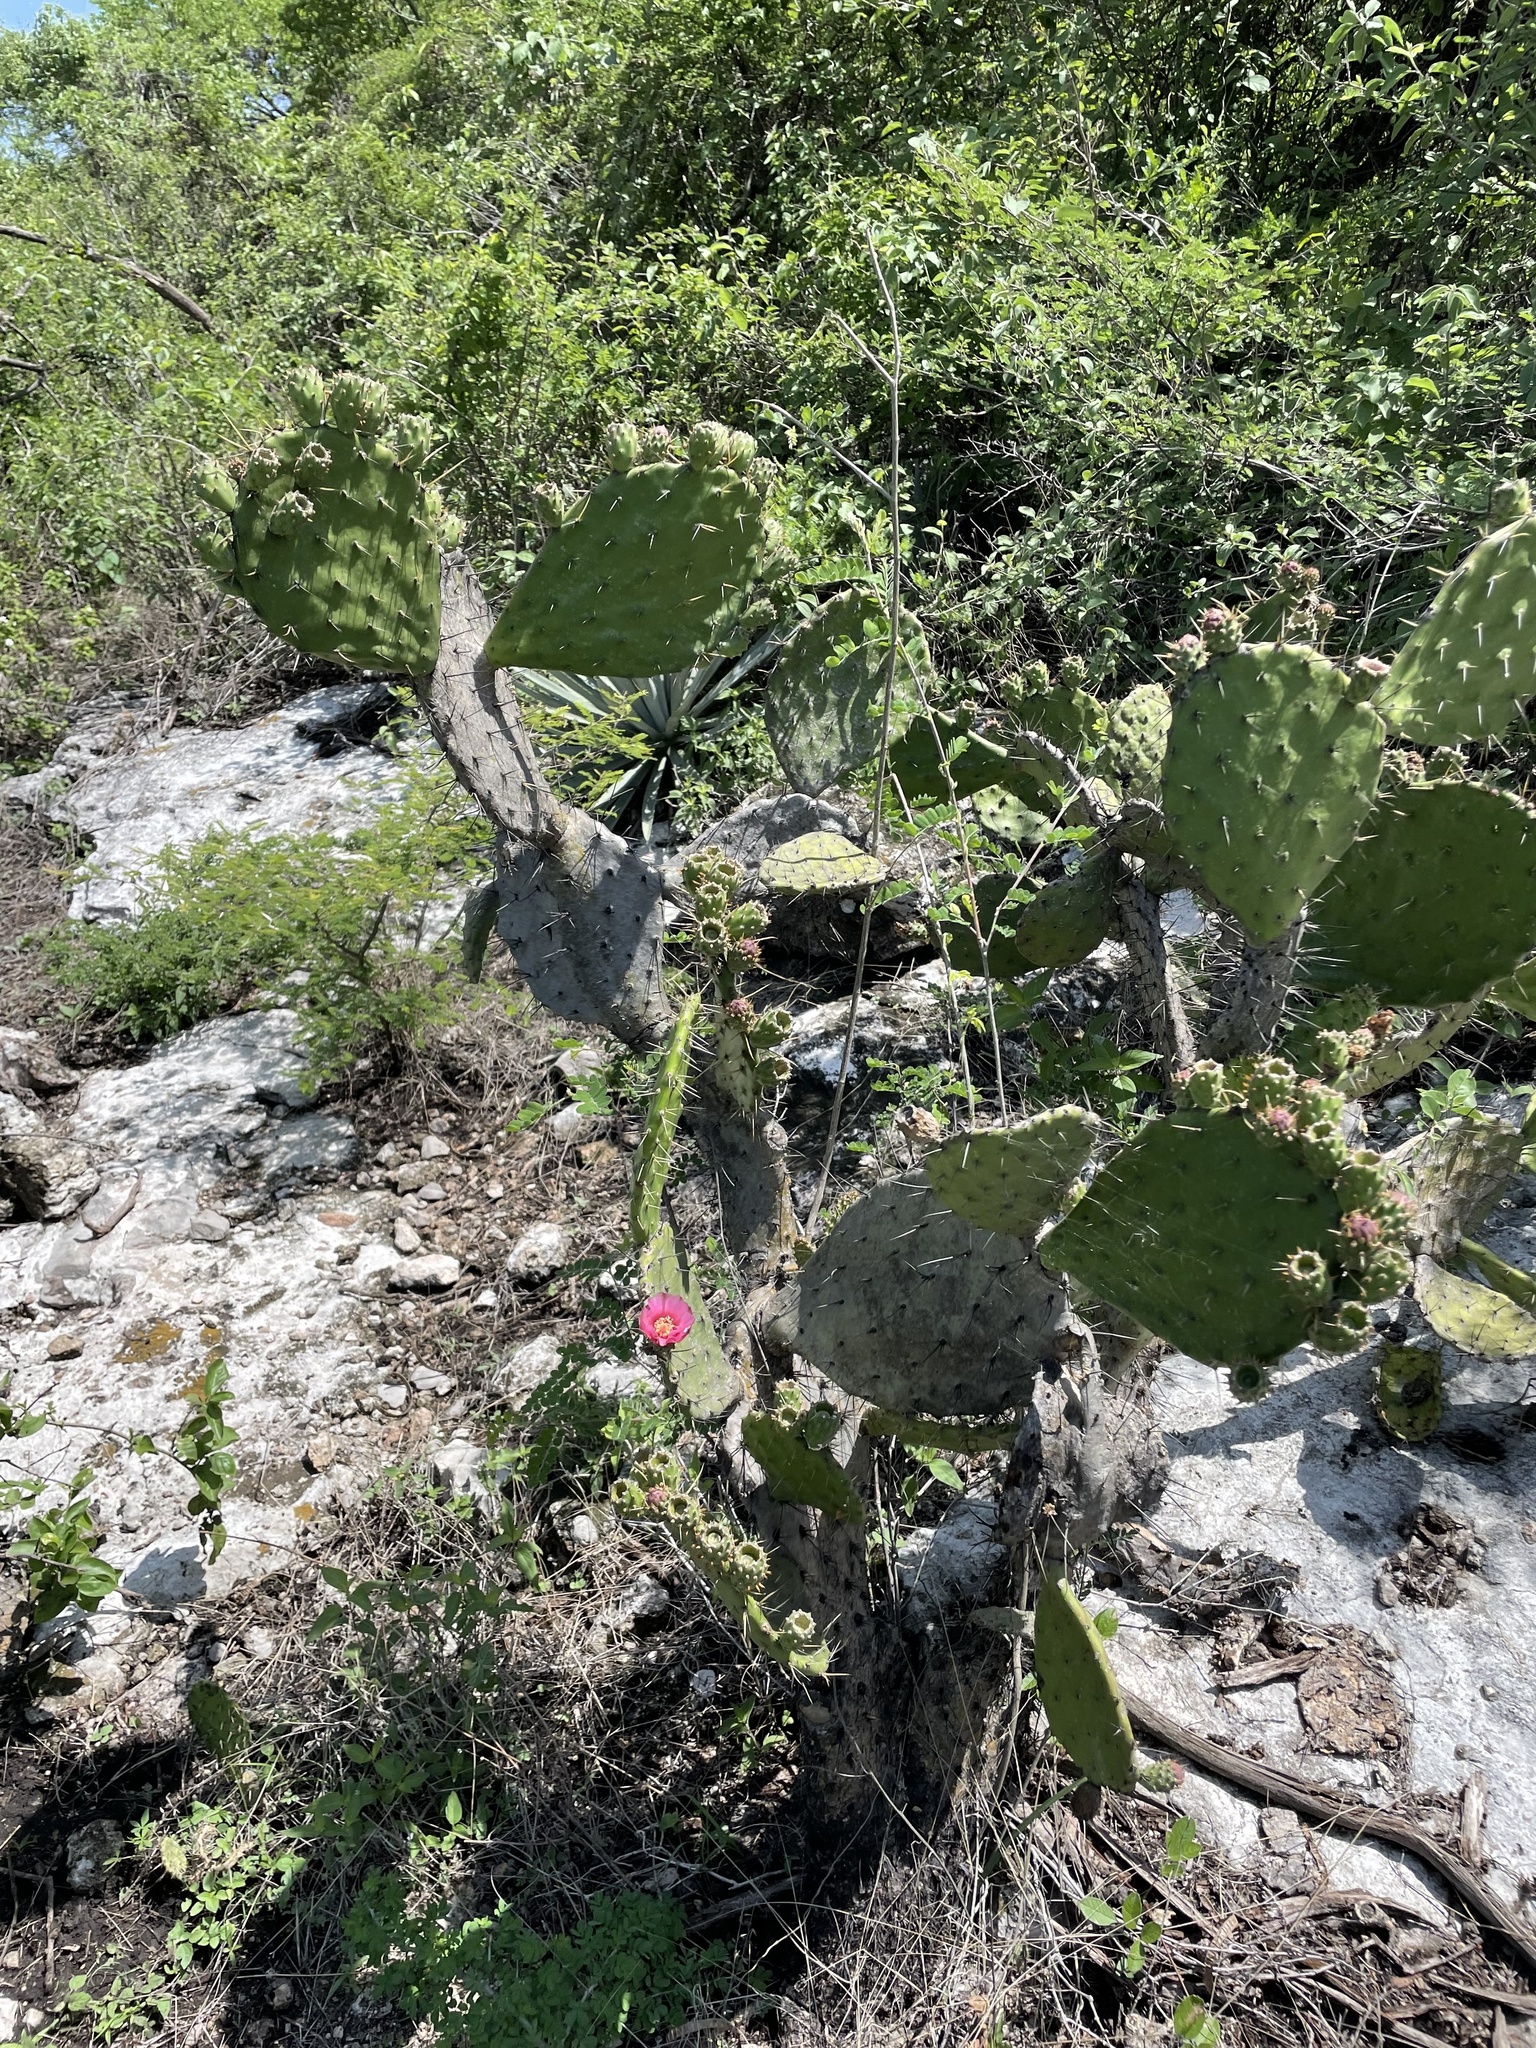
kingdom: Plantae
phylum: Tracheophyta
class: Magnoliopsida
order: Caryophyllales
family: Cactaceae
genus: Opuntia
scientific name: Opuntia depressa
